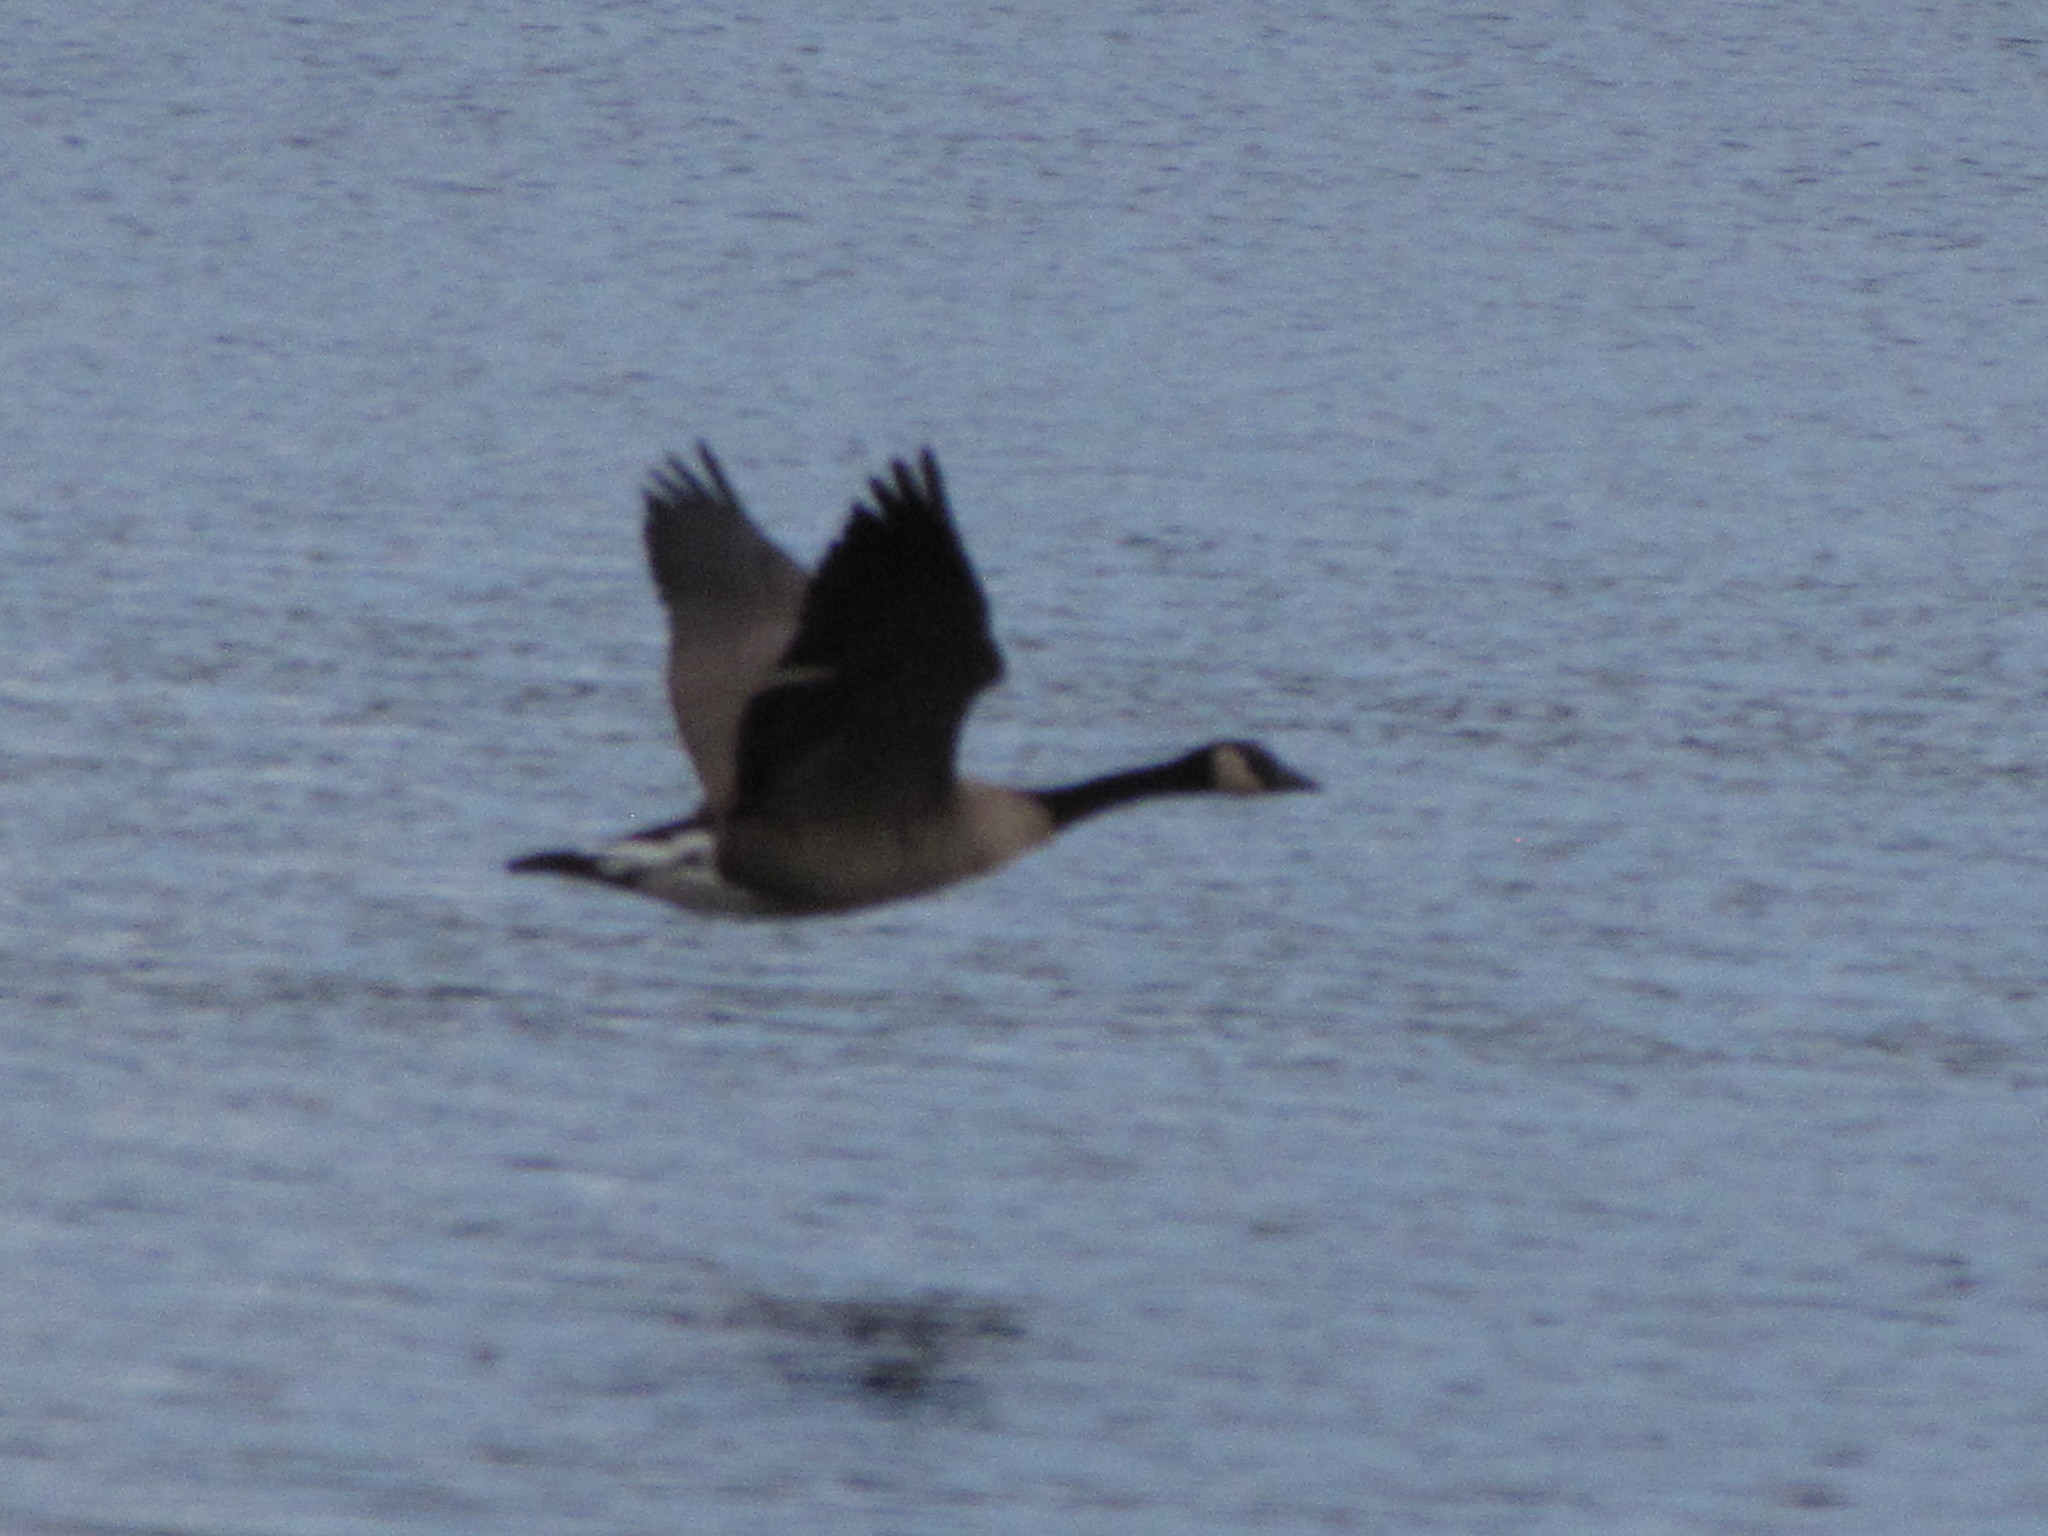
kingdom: Animalia
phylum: Chordata
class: Aves
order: Anseriformes
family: Anatidae
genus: Branta
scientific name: Branta canadensis
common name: Canada goose
